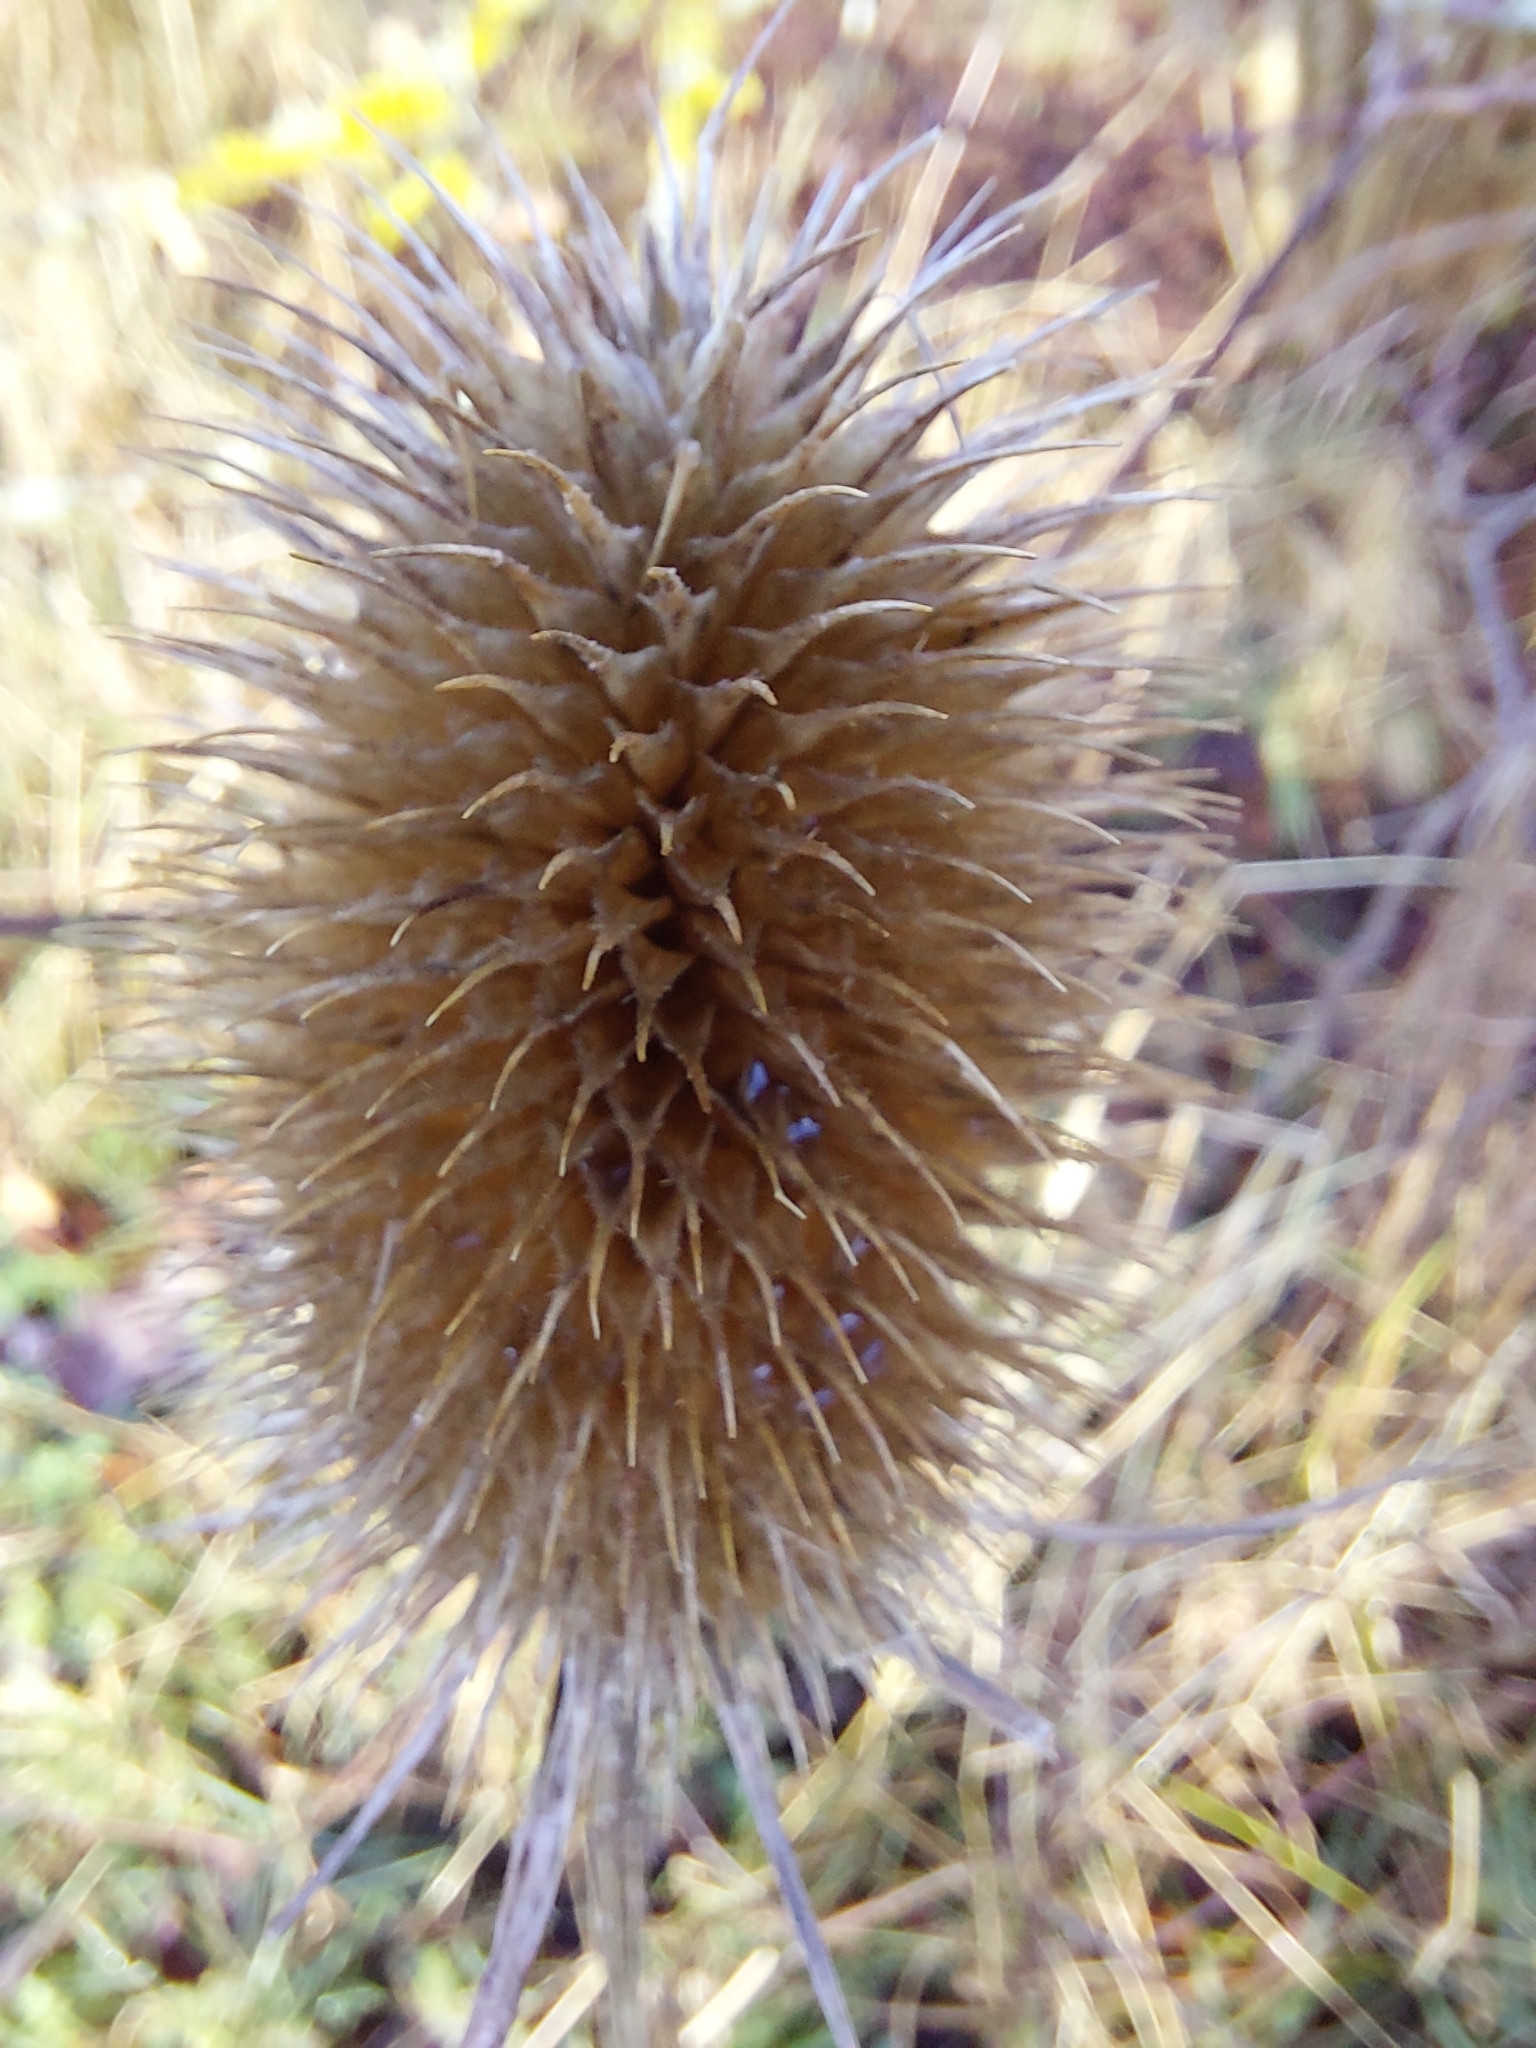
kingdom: Plantae
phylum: Tracheophyta
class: Magnoliopsida
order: Dipsacales
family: Caprifoliaceae
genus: Dipsacus
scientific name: Dipsacus fullonum
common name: Teasel
